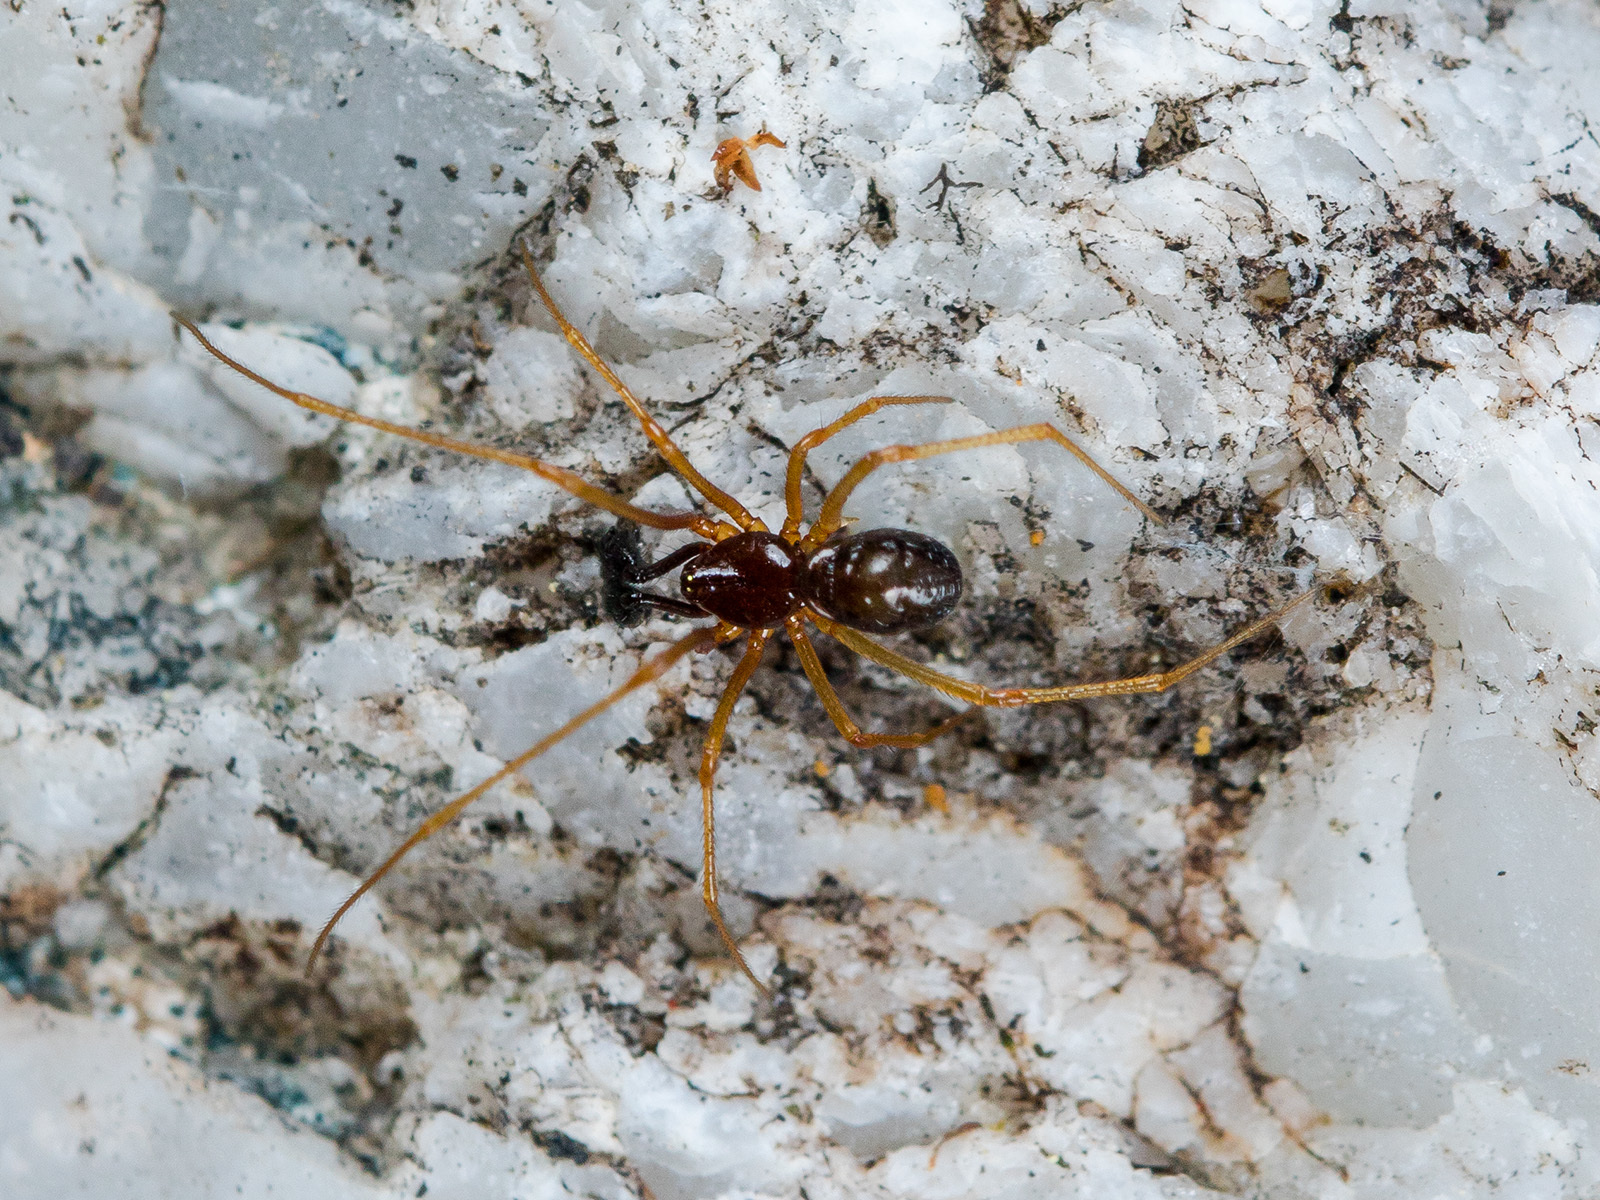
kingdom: Animalia
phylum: Arthropoda
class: Arachnida
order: Araneae
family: Theridiidae
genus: Neottiura
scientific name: Neottiura bimaculata
